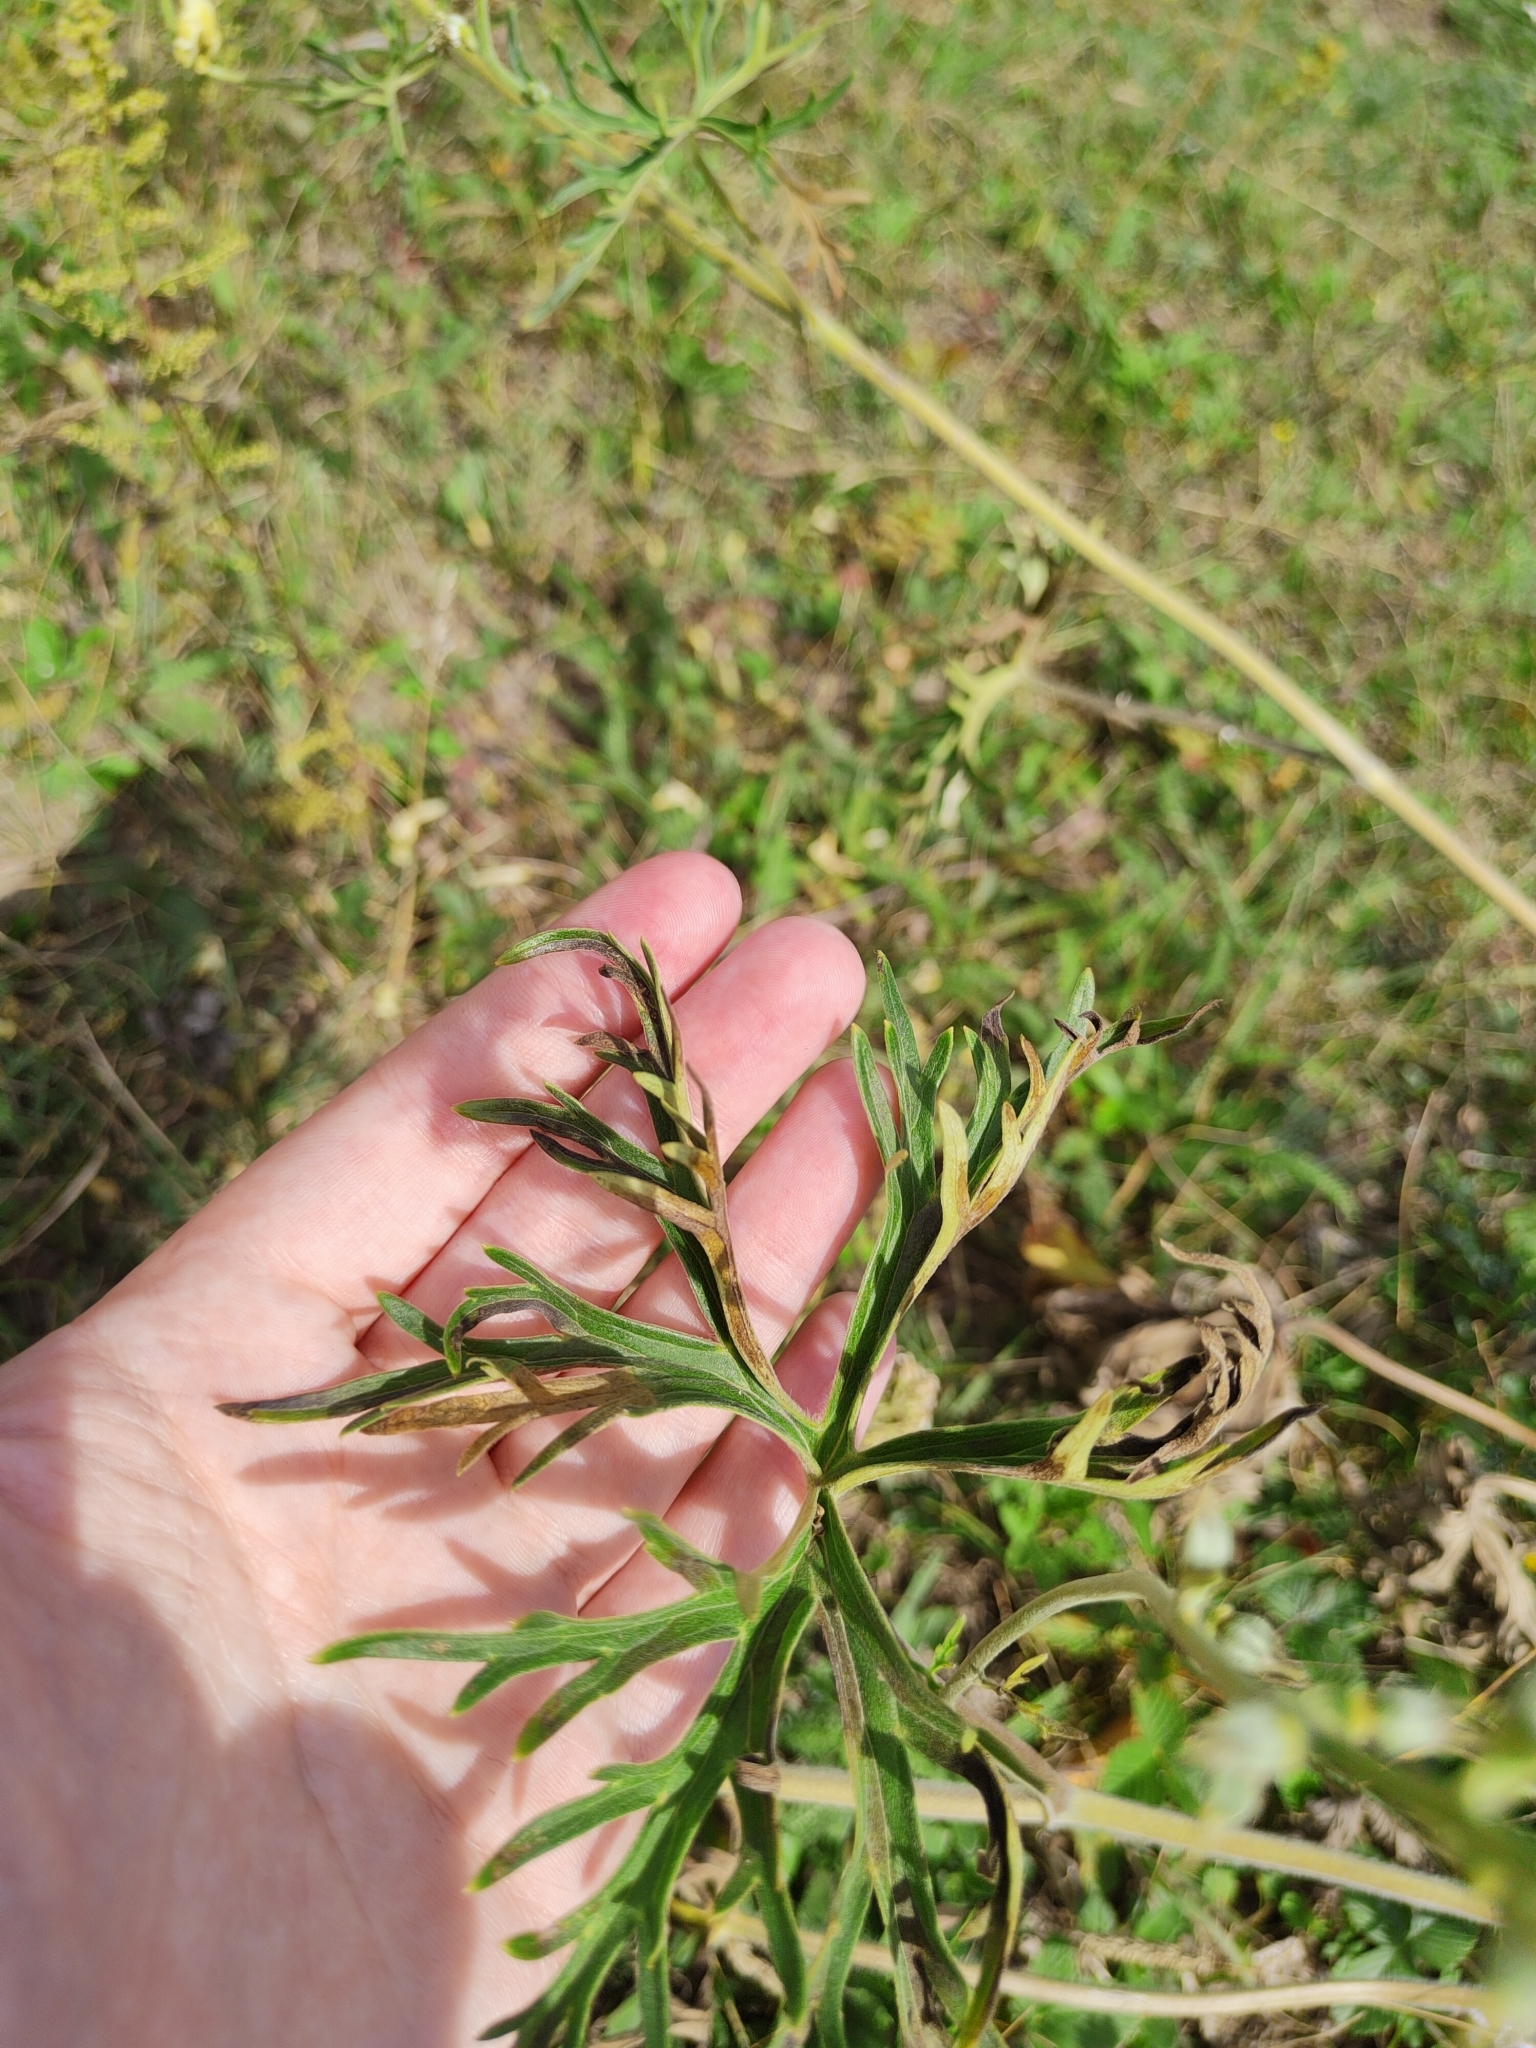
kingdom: Plantae
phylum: Tracheophyta
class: Magnoliopsida
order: Ranunculales
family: Ranunculaceae
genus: Aconitum
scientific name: Aconitum barbatum
